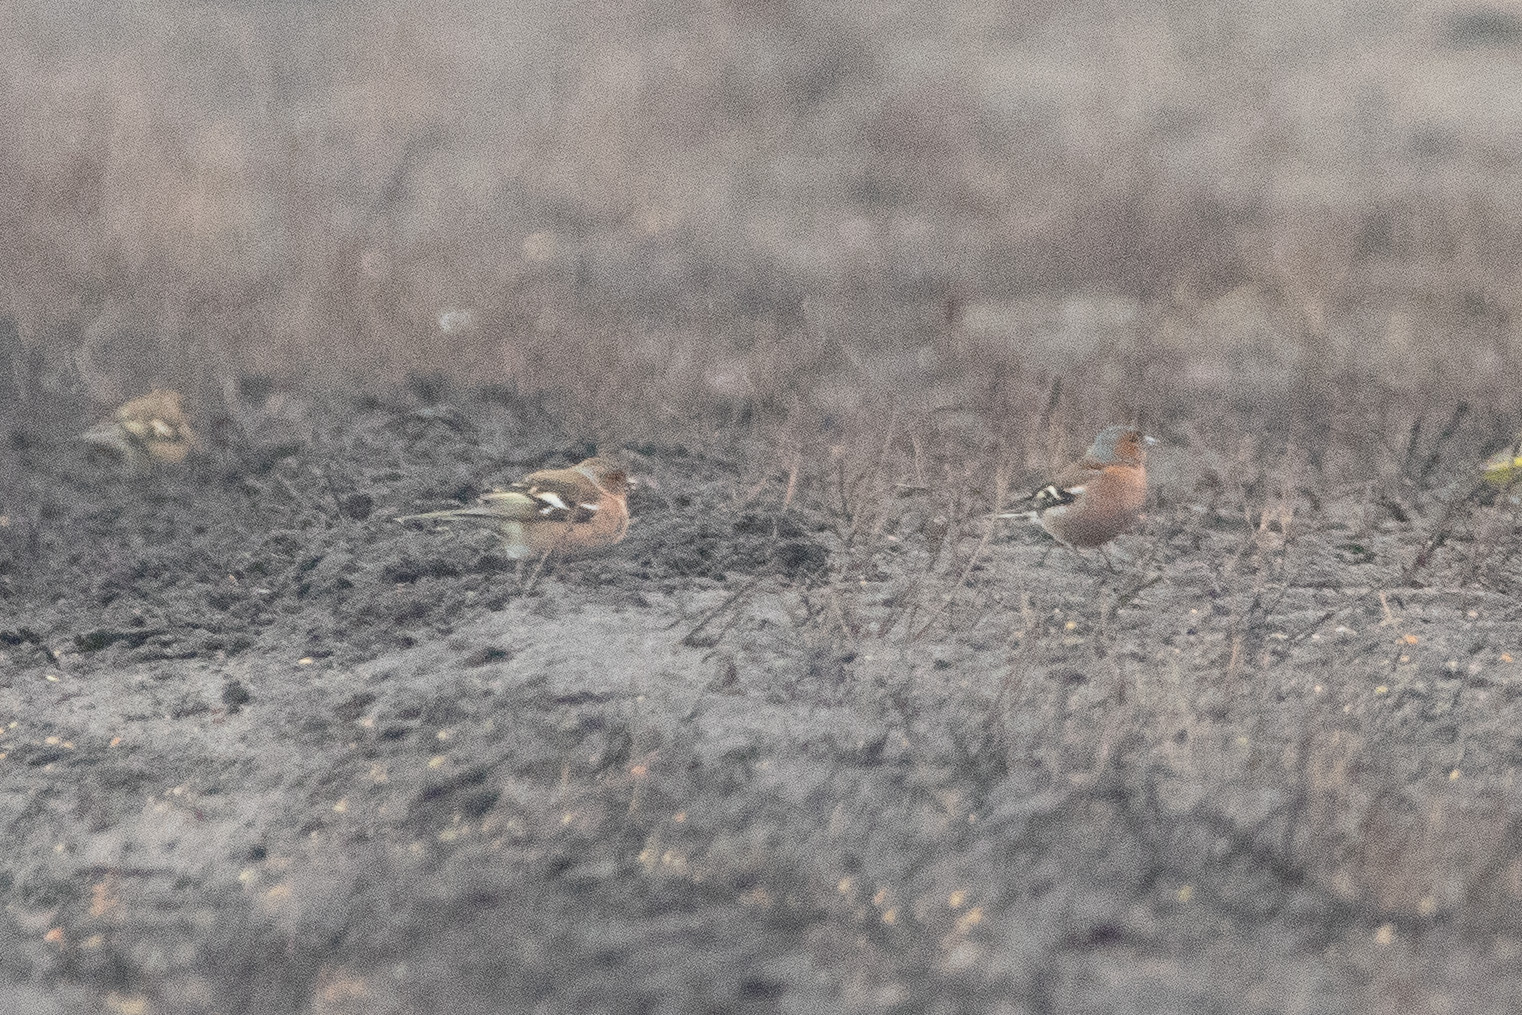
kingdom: Animalia
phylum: Chordata
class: Aves
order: Passeriformes
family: Fringillidae
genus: Fringilla
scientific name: Fringilla coelebs
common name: Common chaffinch
